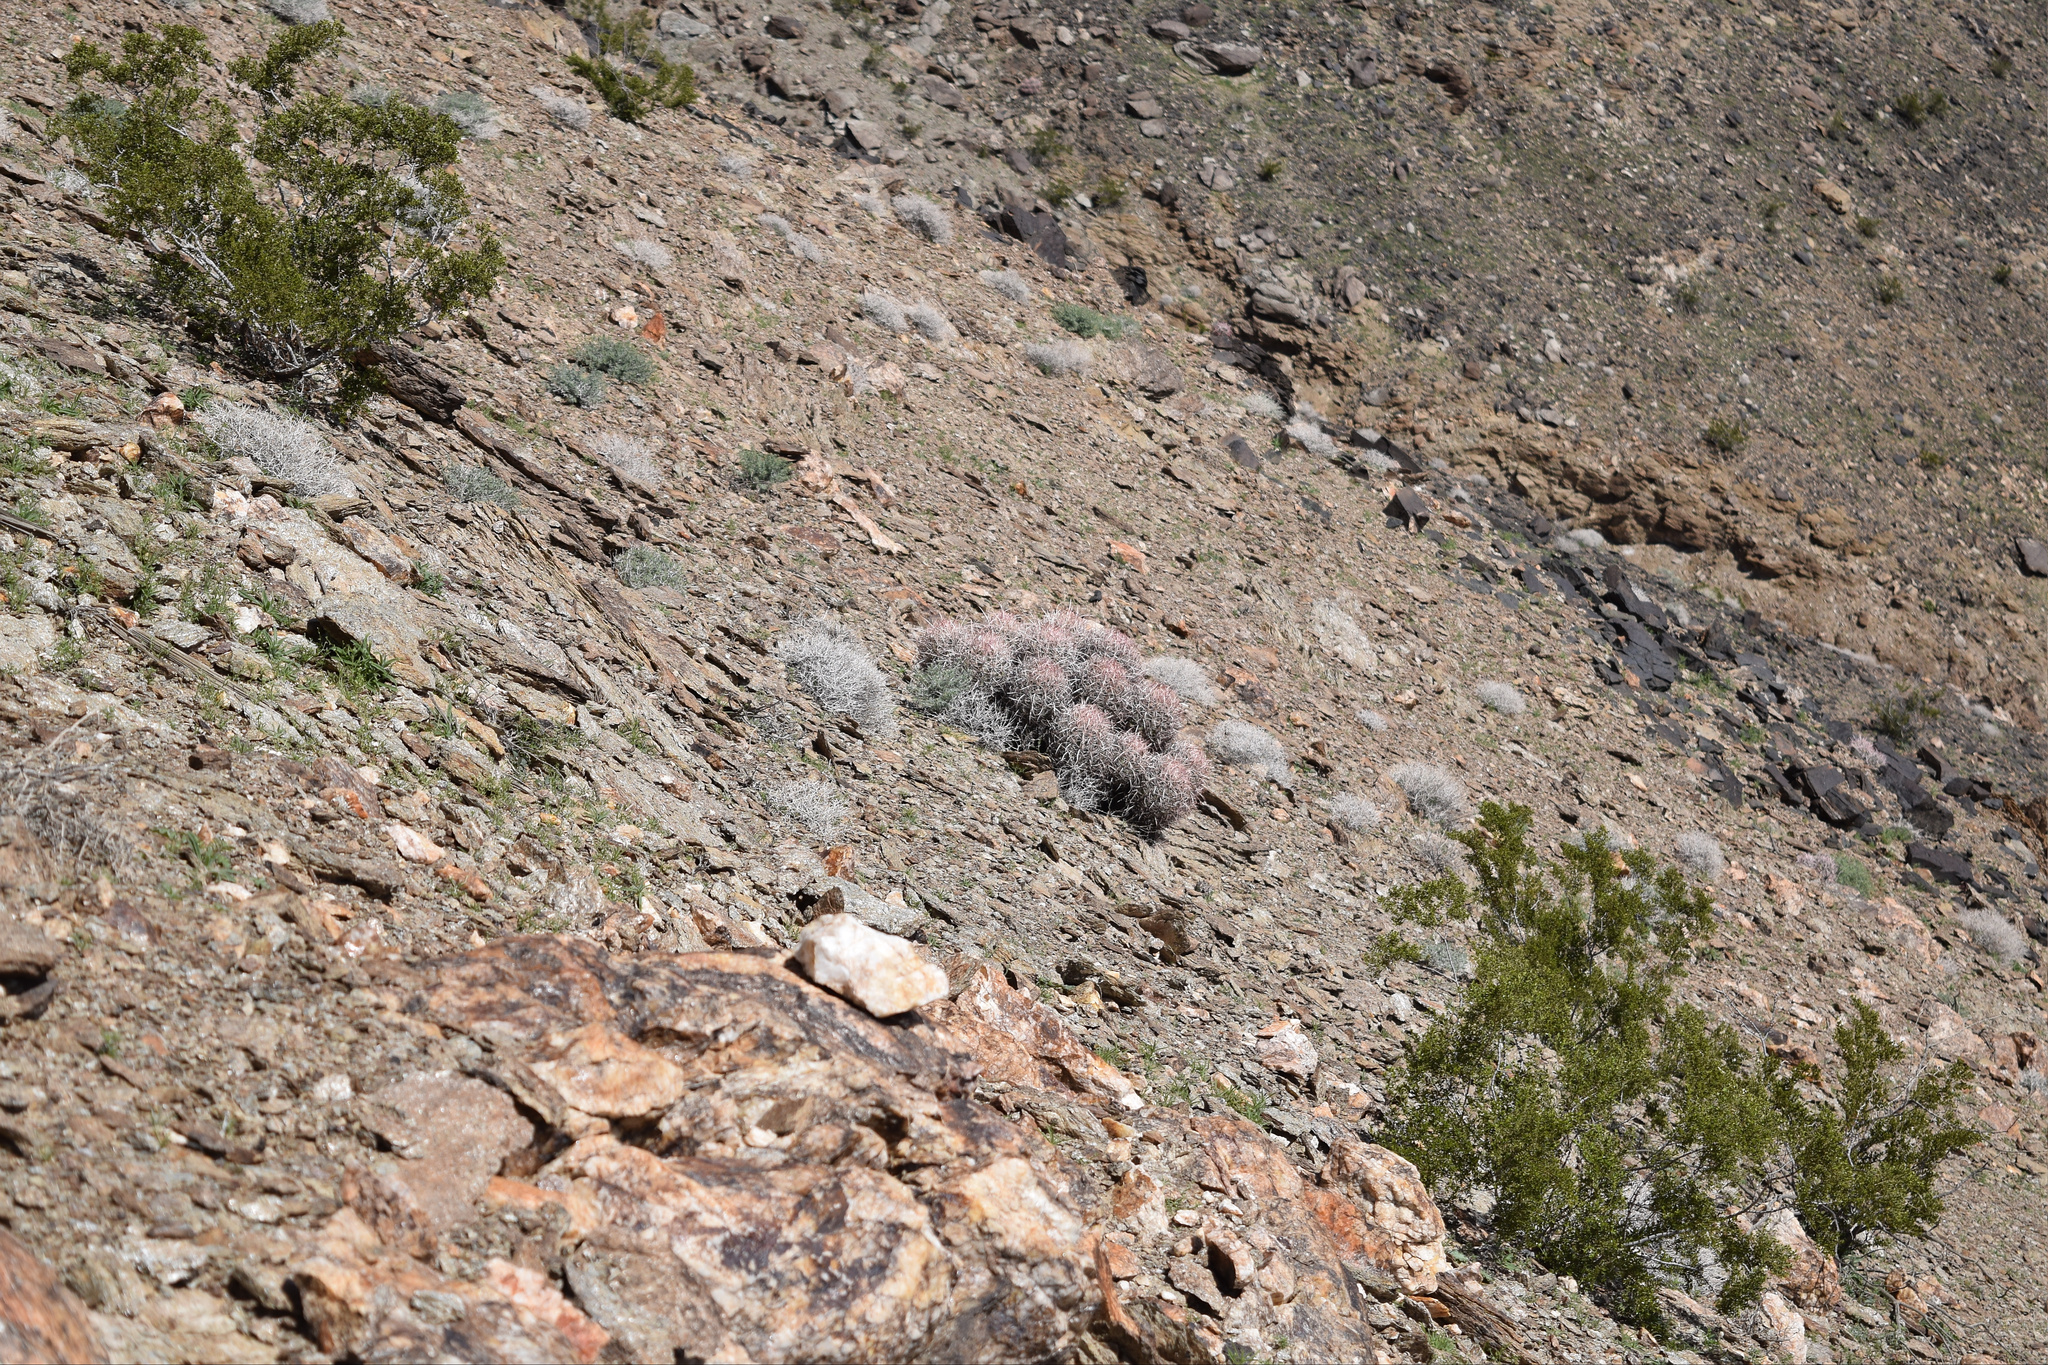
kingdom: Plantae
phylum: Tracheophyta
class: Magnoliopsida
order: Caryophyllales
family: Cactaceae
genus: Echinocactus
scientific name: Echinocactus polycephalus
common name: Cottontop cactus
